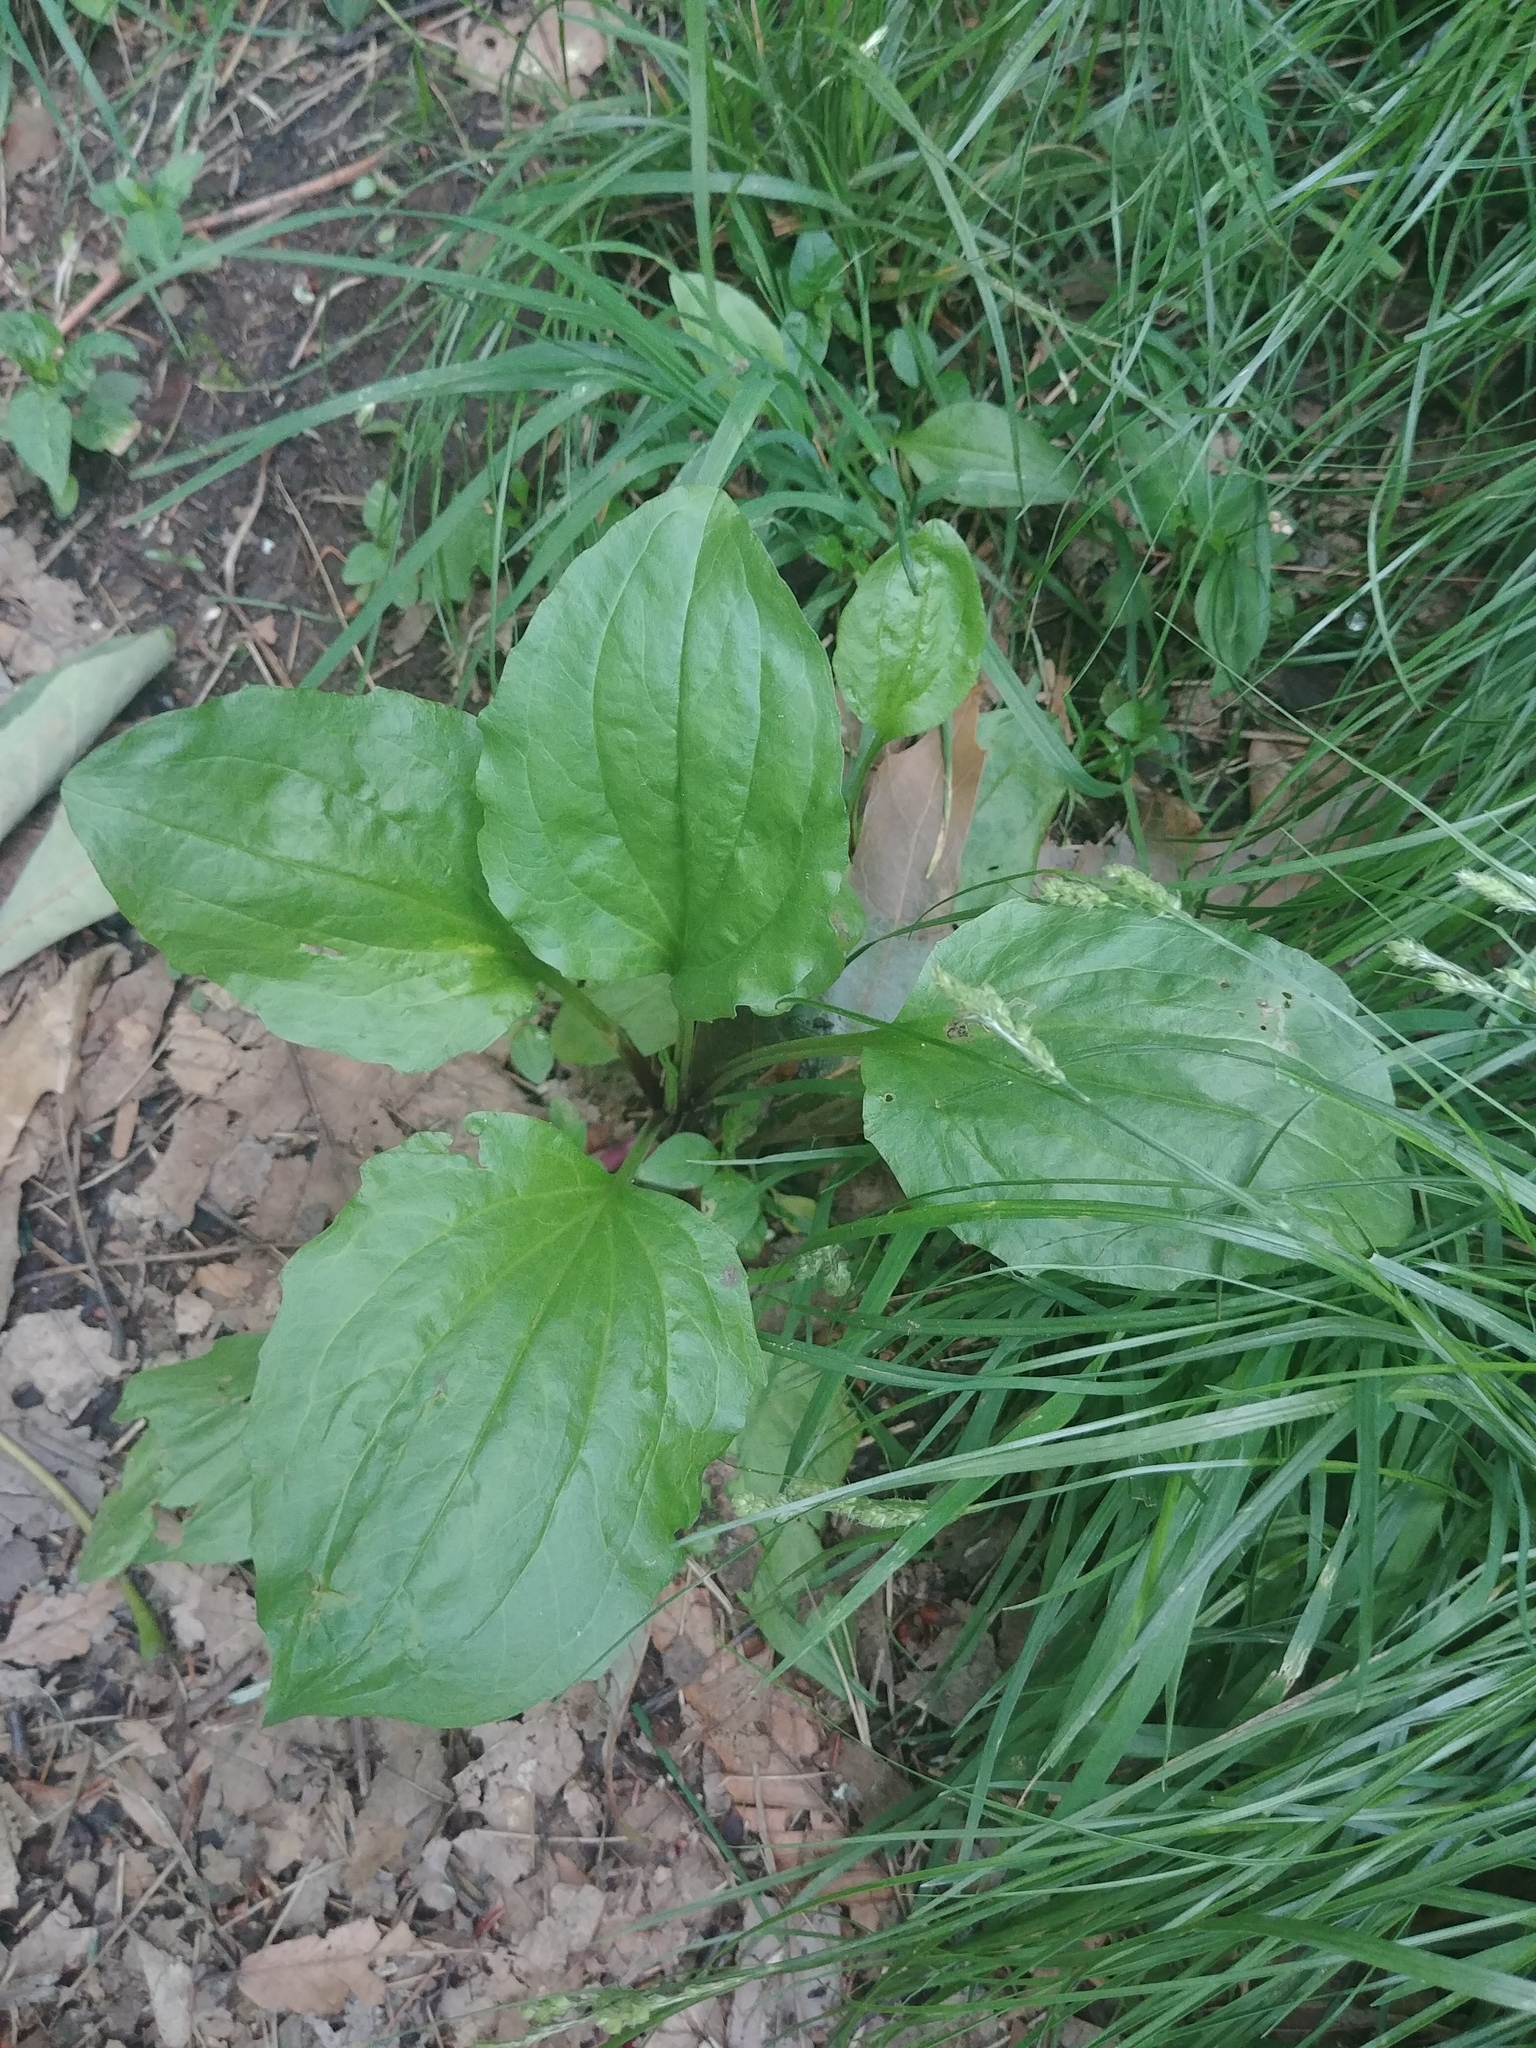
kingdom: Plantae
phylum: Tracheophyta
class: Magnoliopsida
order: Lamiales
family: Plantaginaceae
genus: Plantago
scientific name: Plantago major
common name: Common plantain
